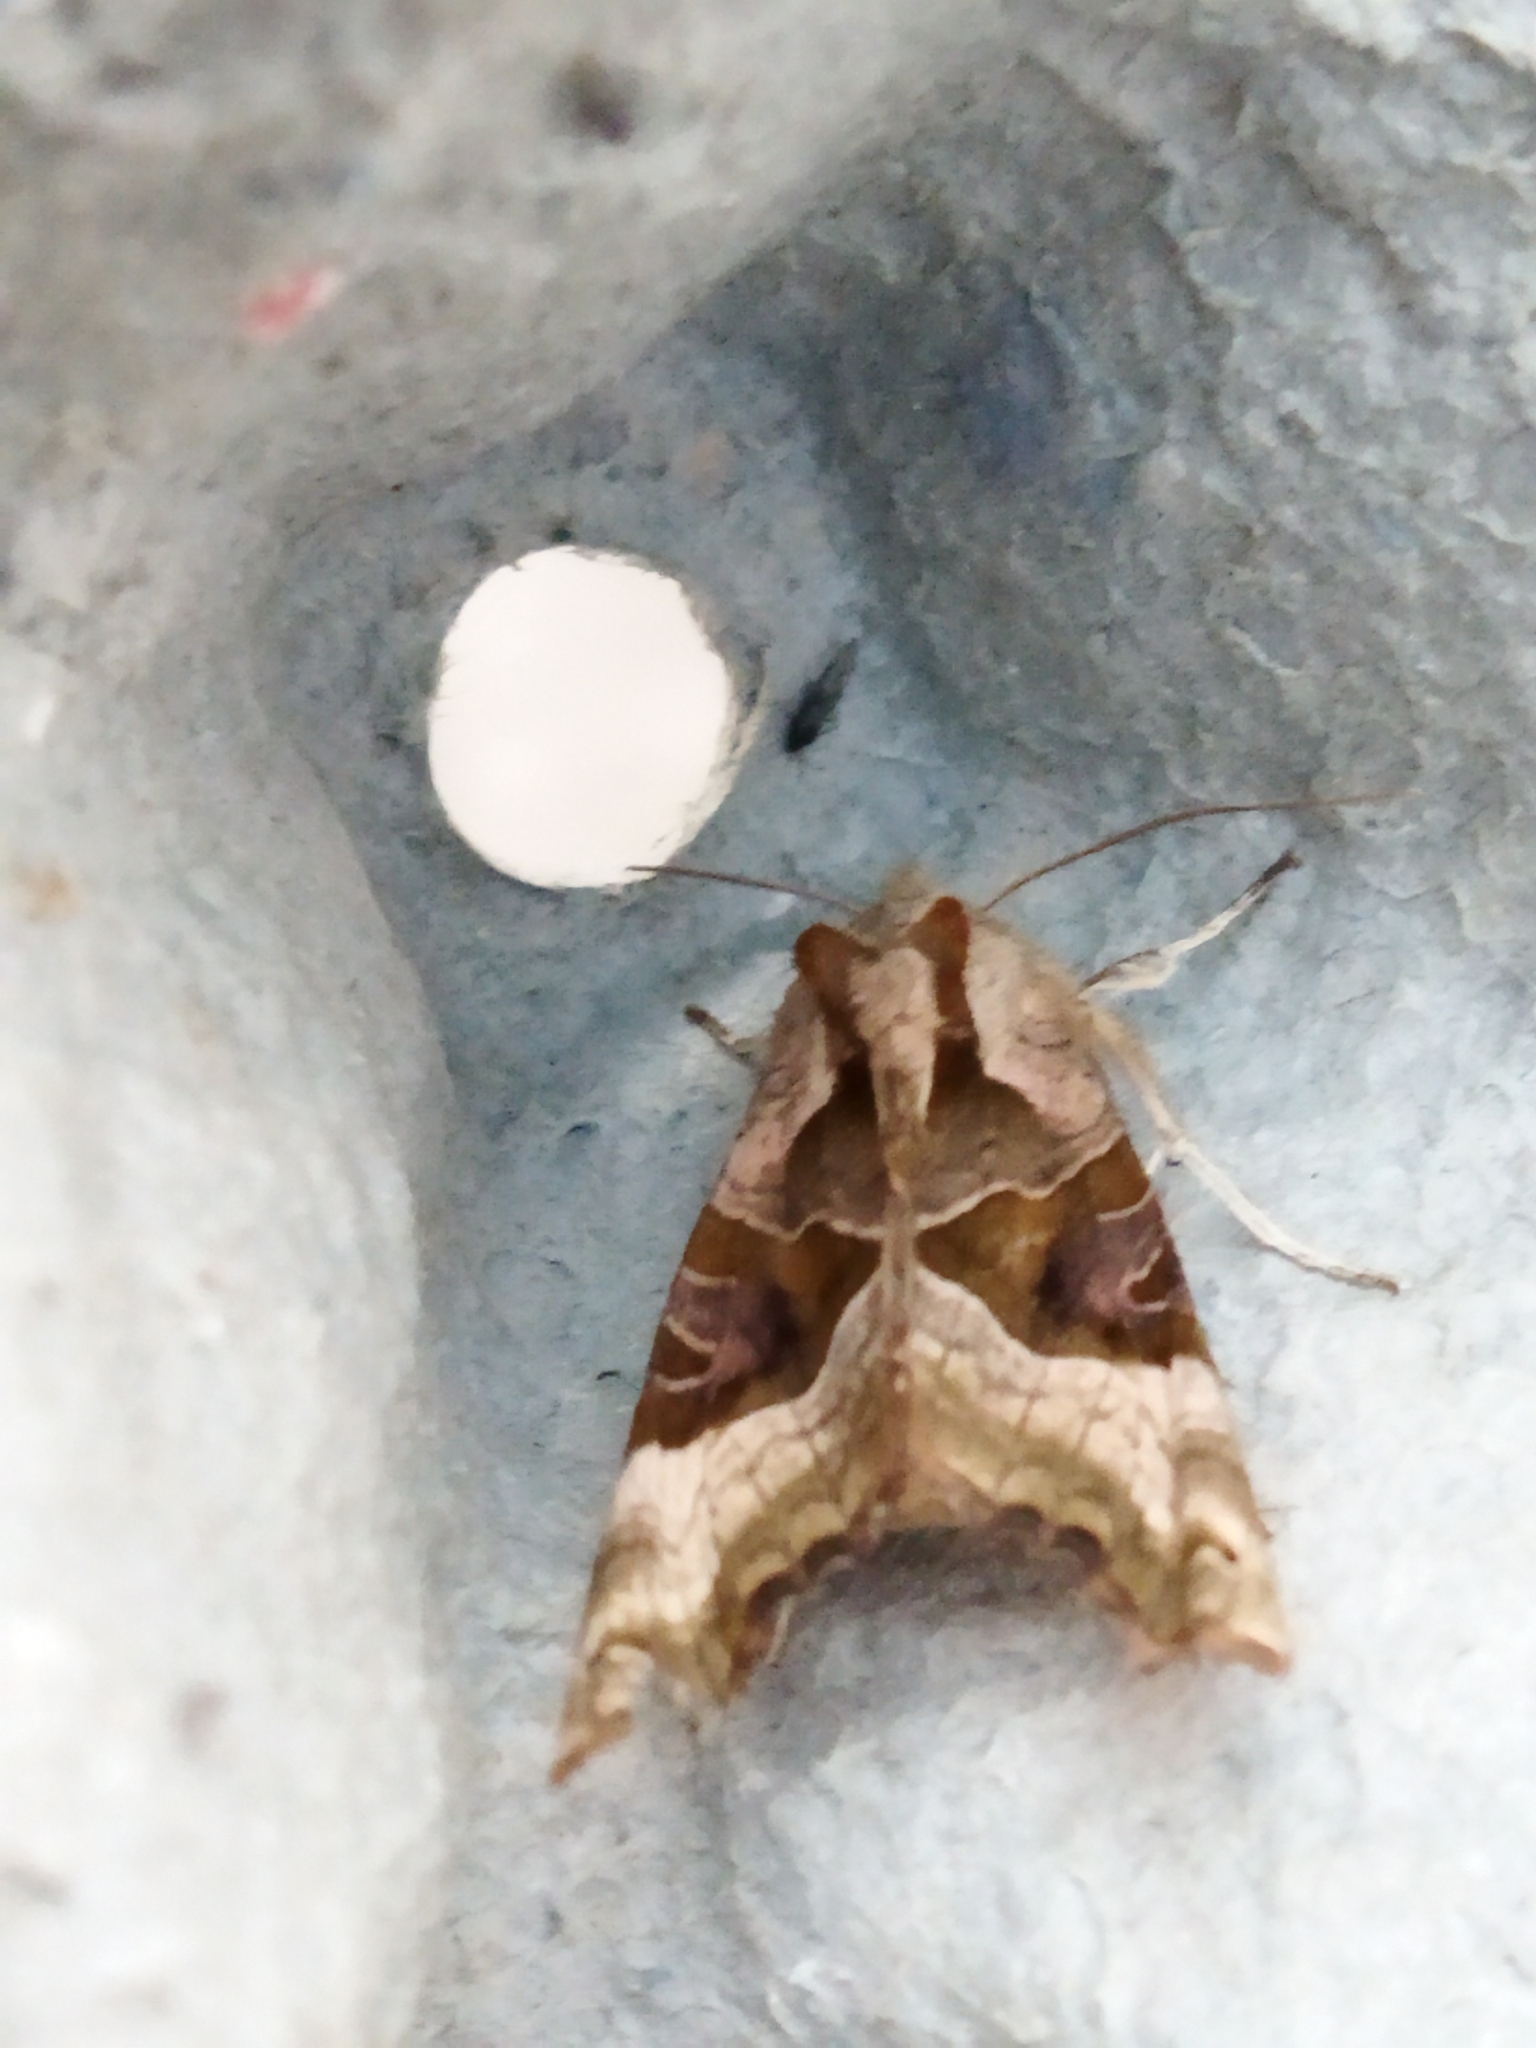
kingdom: Animalia
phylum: Arthropoda
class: Insecta
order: Lepidoptera
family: Noctuidae
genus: Phlogophora
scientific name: Phlogophora meticulosa
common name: Angle shades
